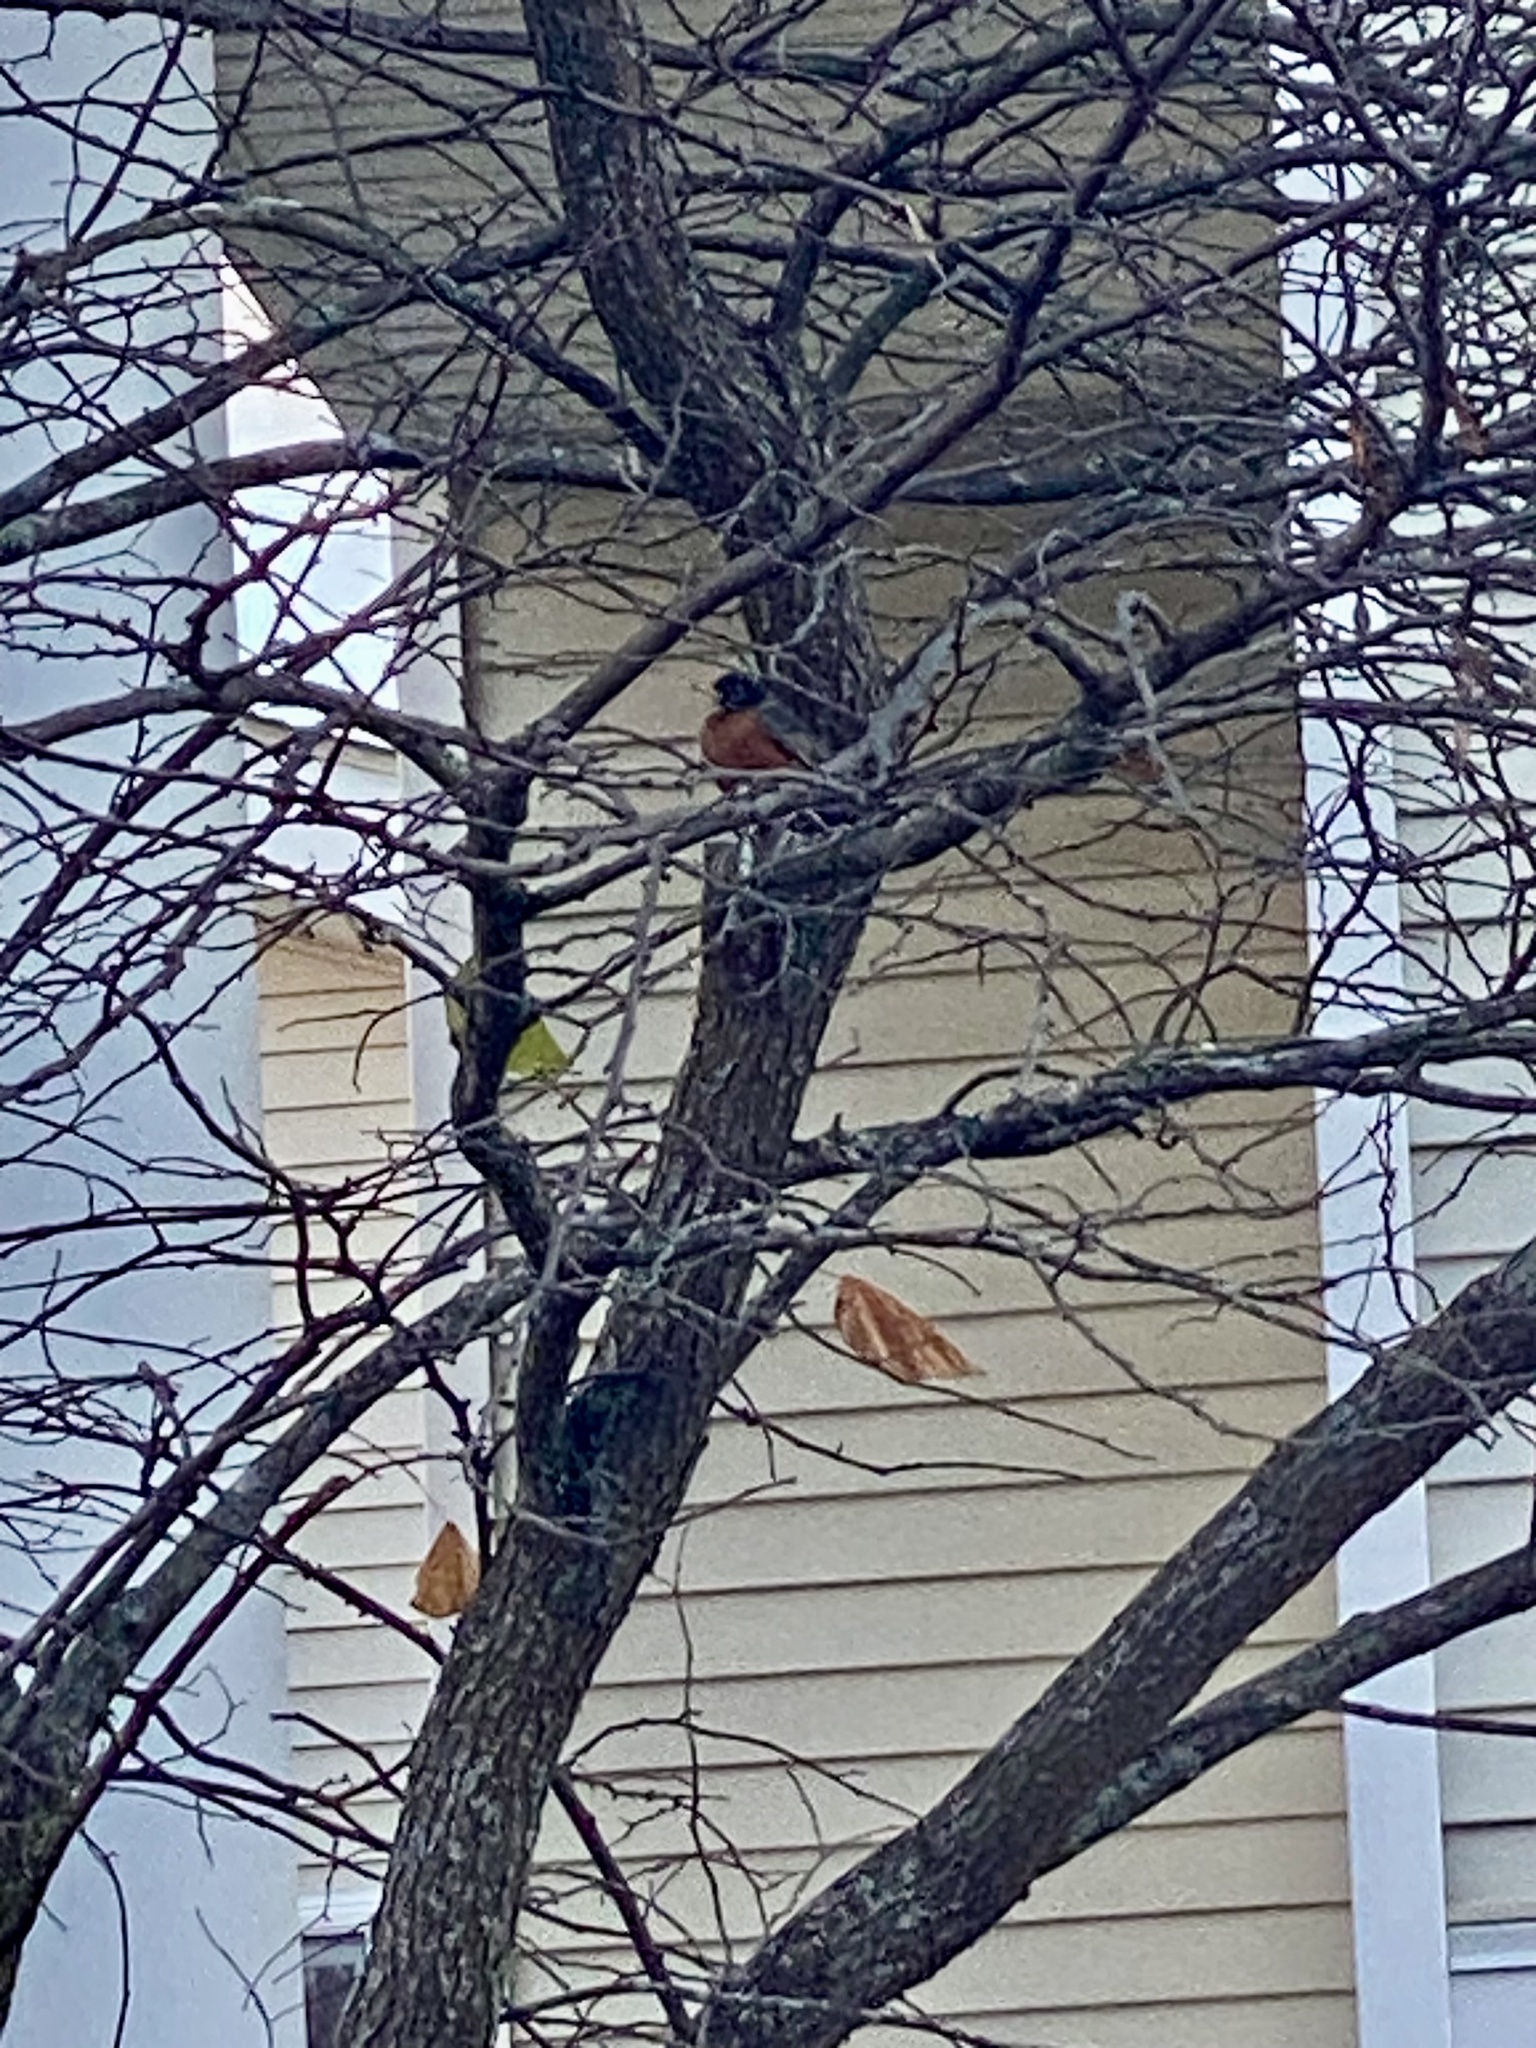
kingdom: Animalia
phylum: Chordata
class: Aves
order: Passeriformes
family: Turdidae
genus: Turdus
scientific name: Turdus migratorius
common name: American robin
